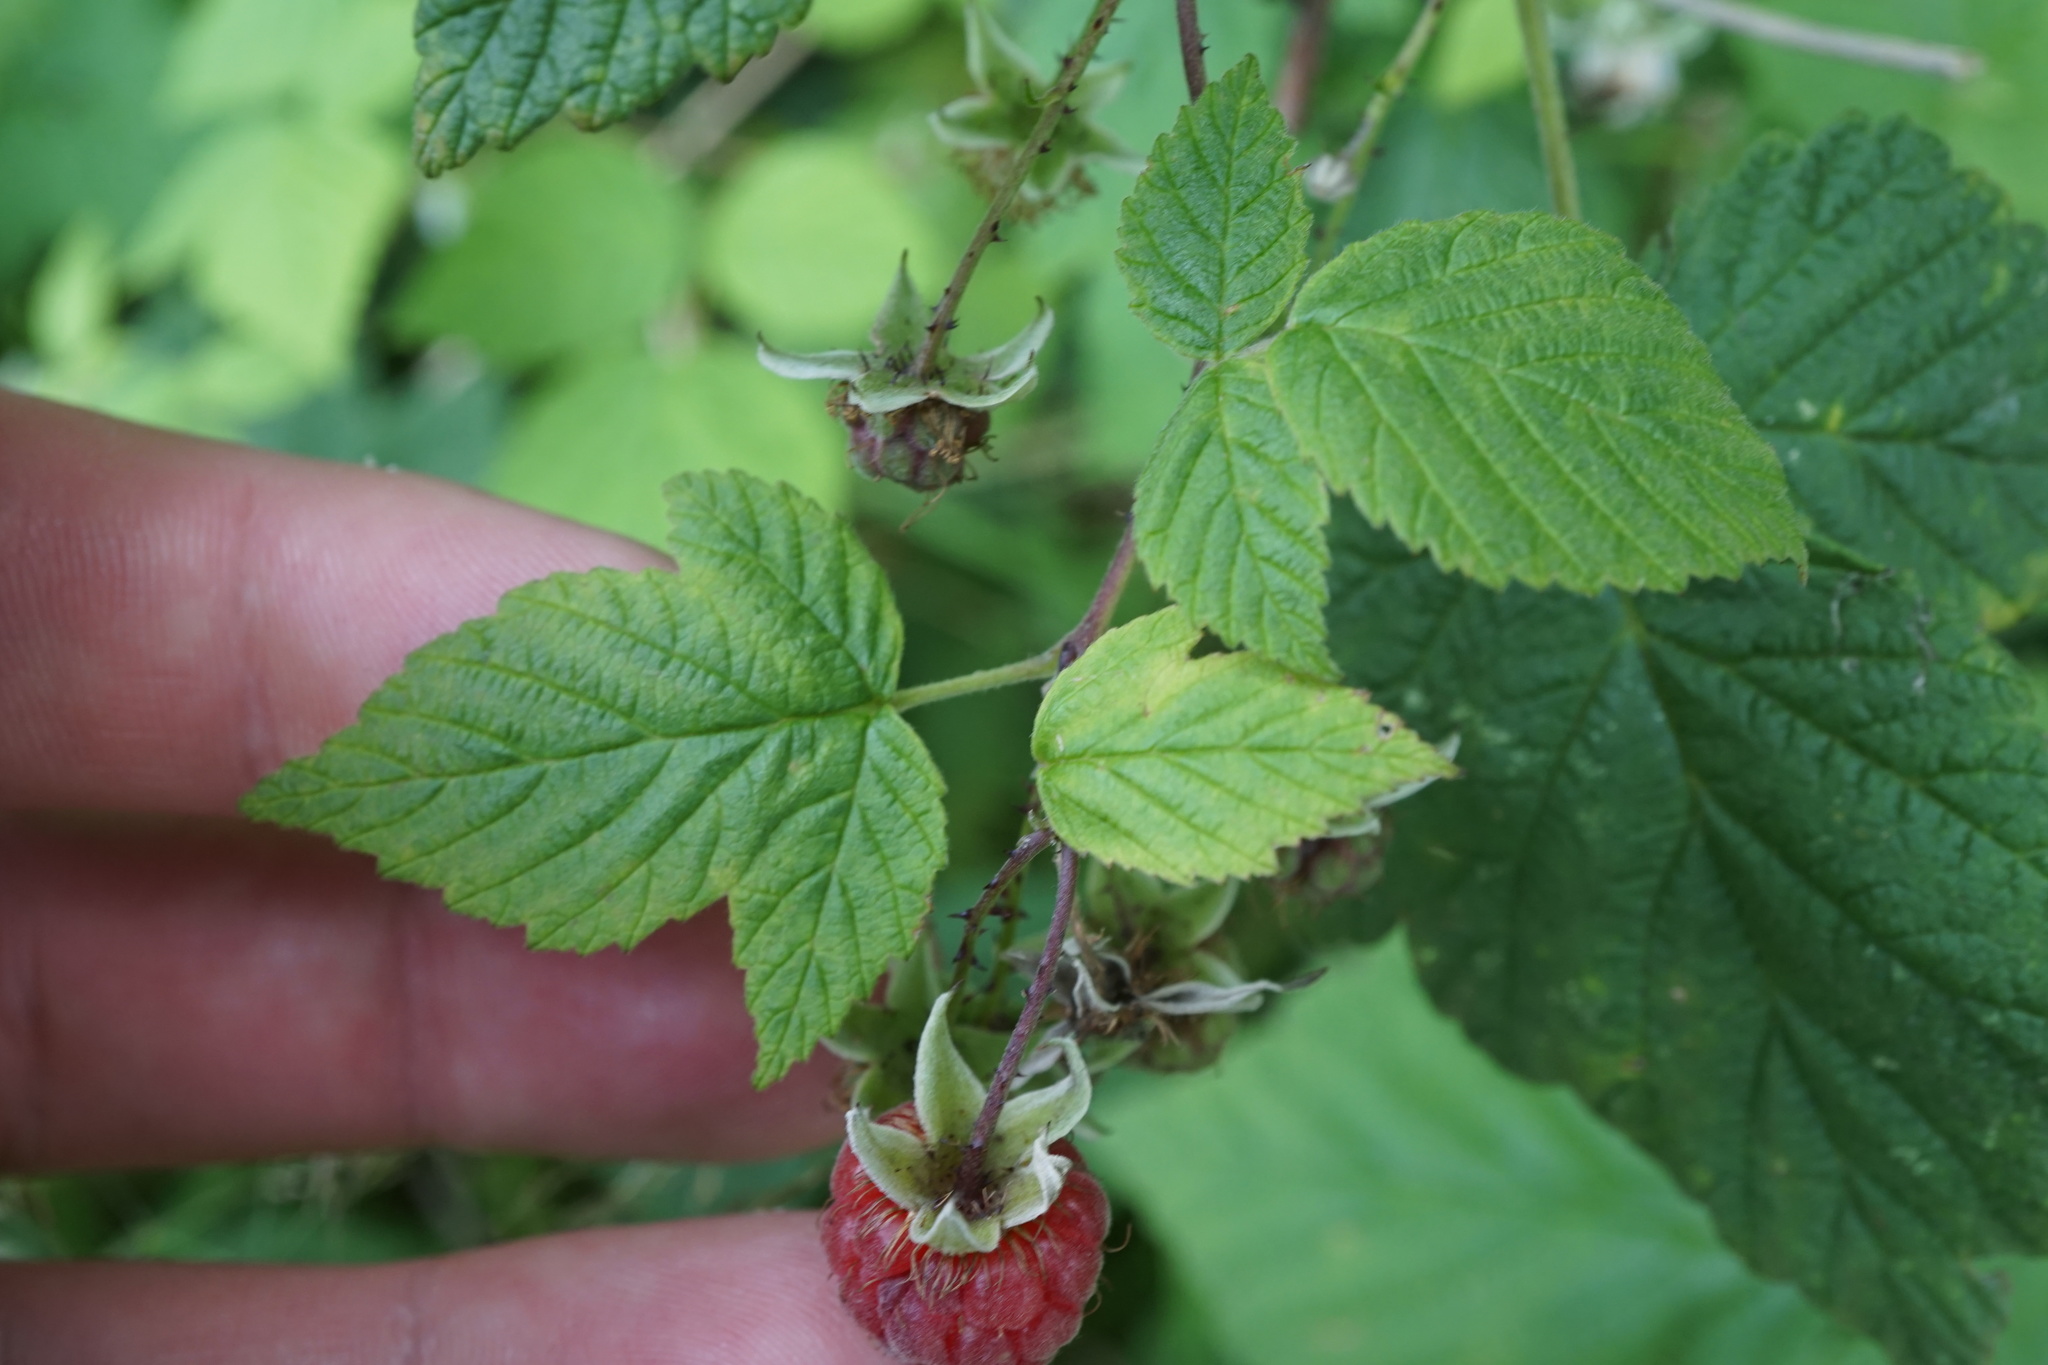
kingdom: Plantae
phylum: Tracheophyta
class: Magnoliopsida
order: Rosales
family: Rosaceae
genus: Rubus
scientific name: Rubus idaeus
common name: Raspberry
